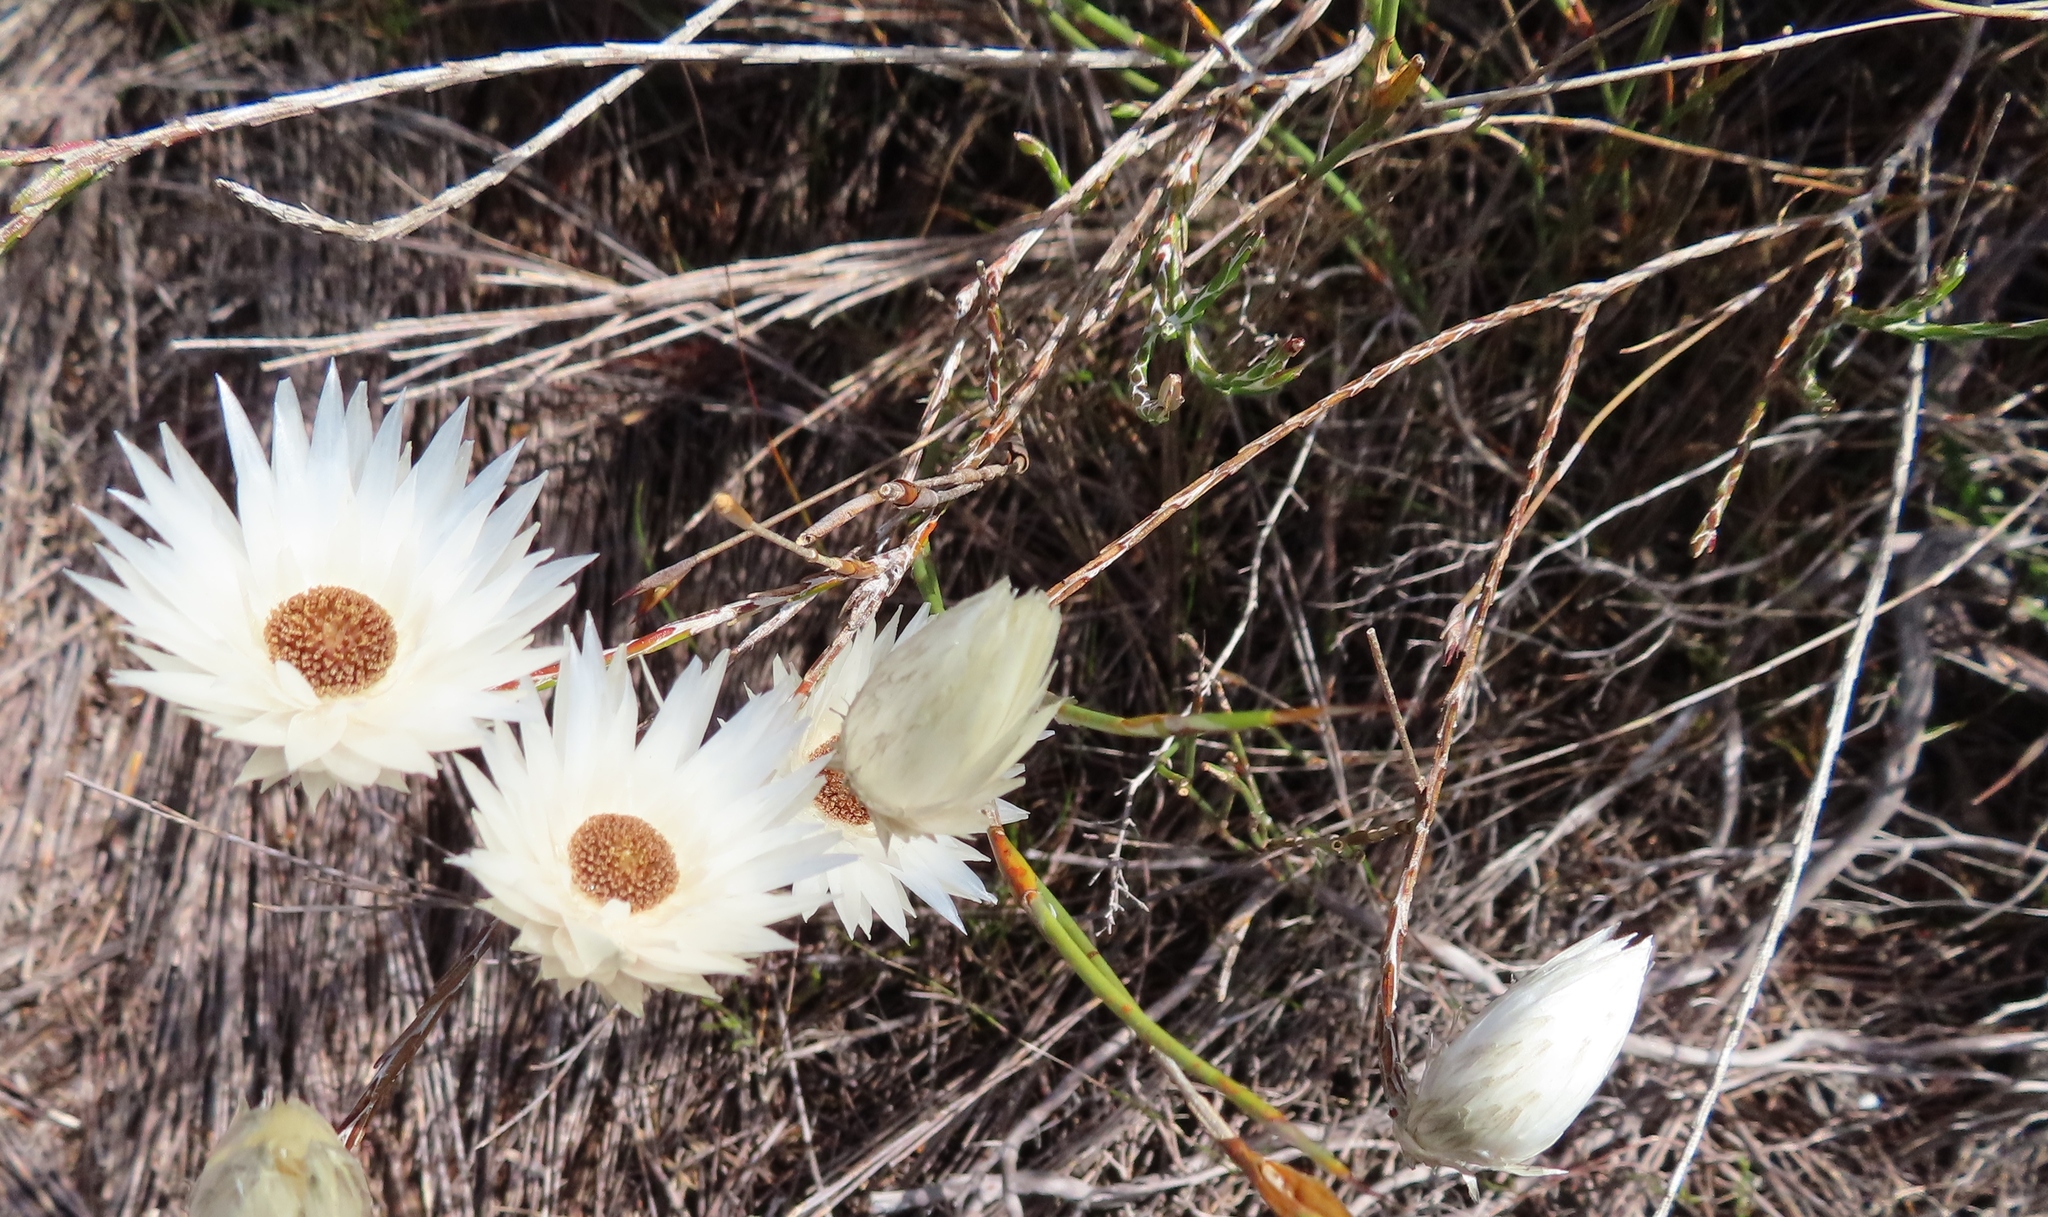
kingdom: Plantae
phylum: Tracheophyta
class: Magnoliopsida
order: Asterales
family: Asteraceae
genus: Edmondia
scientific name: Edmondia sesamoides
